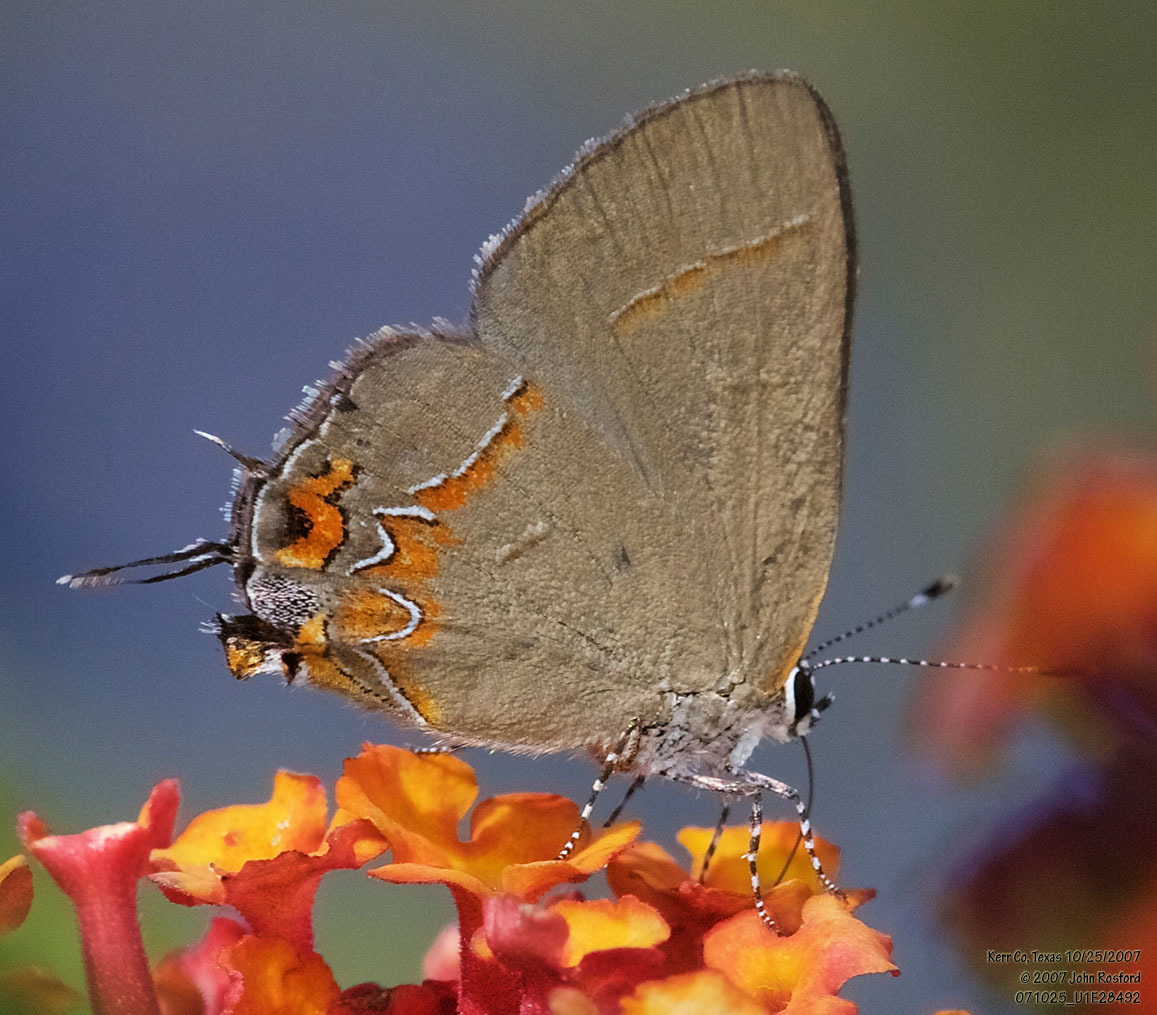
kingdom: Animalia
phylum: Arthropoda
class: Insecta
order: Lepidoptera
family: Lycaenidae
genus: Calycopis
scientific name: Calycopis isobeon
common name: Dusky-blue groundstreak
